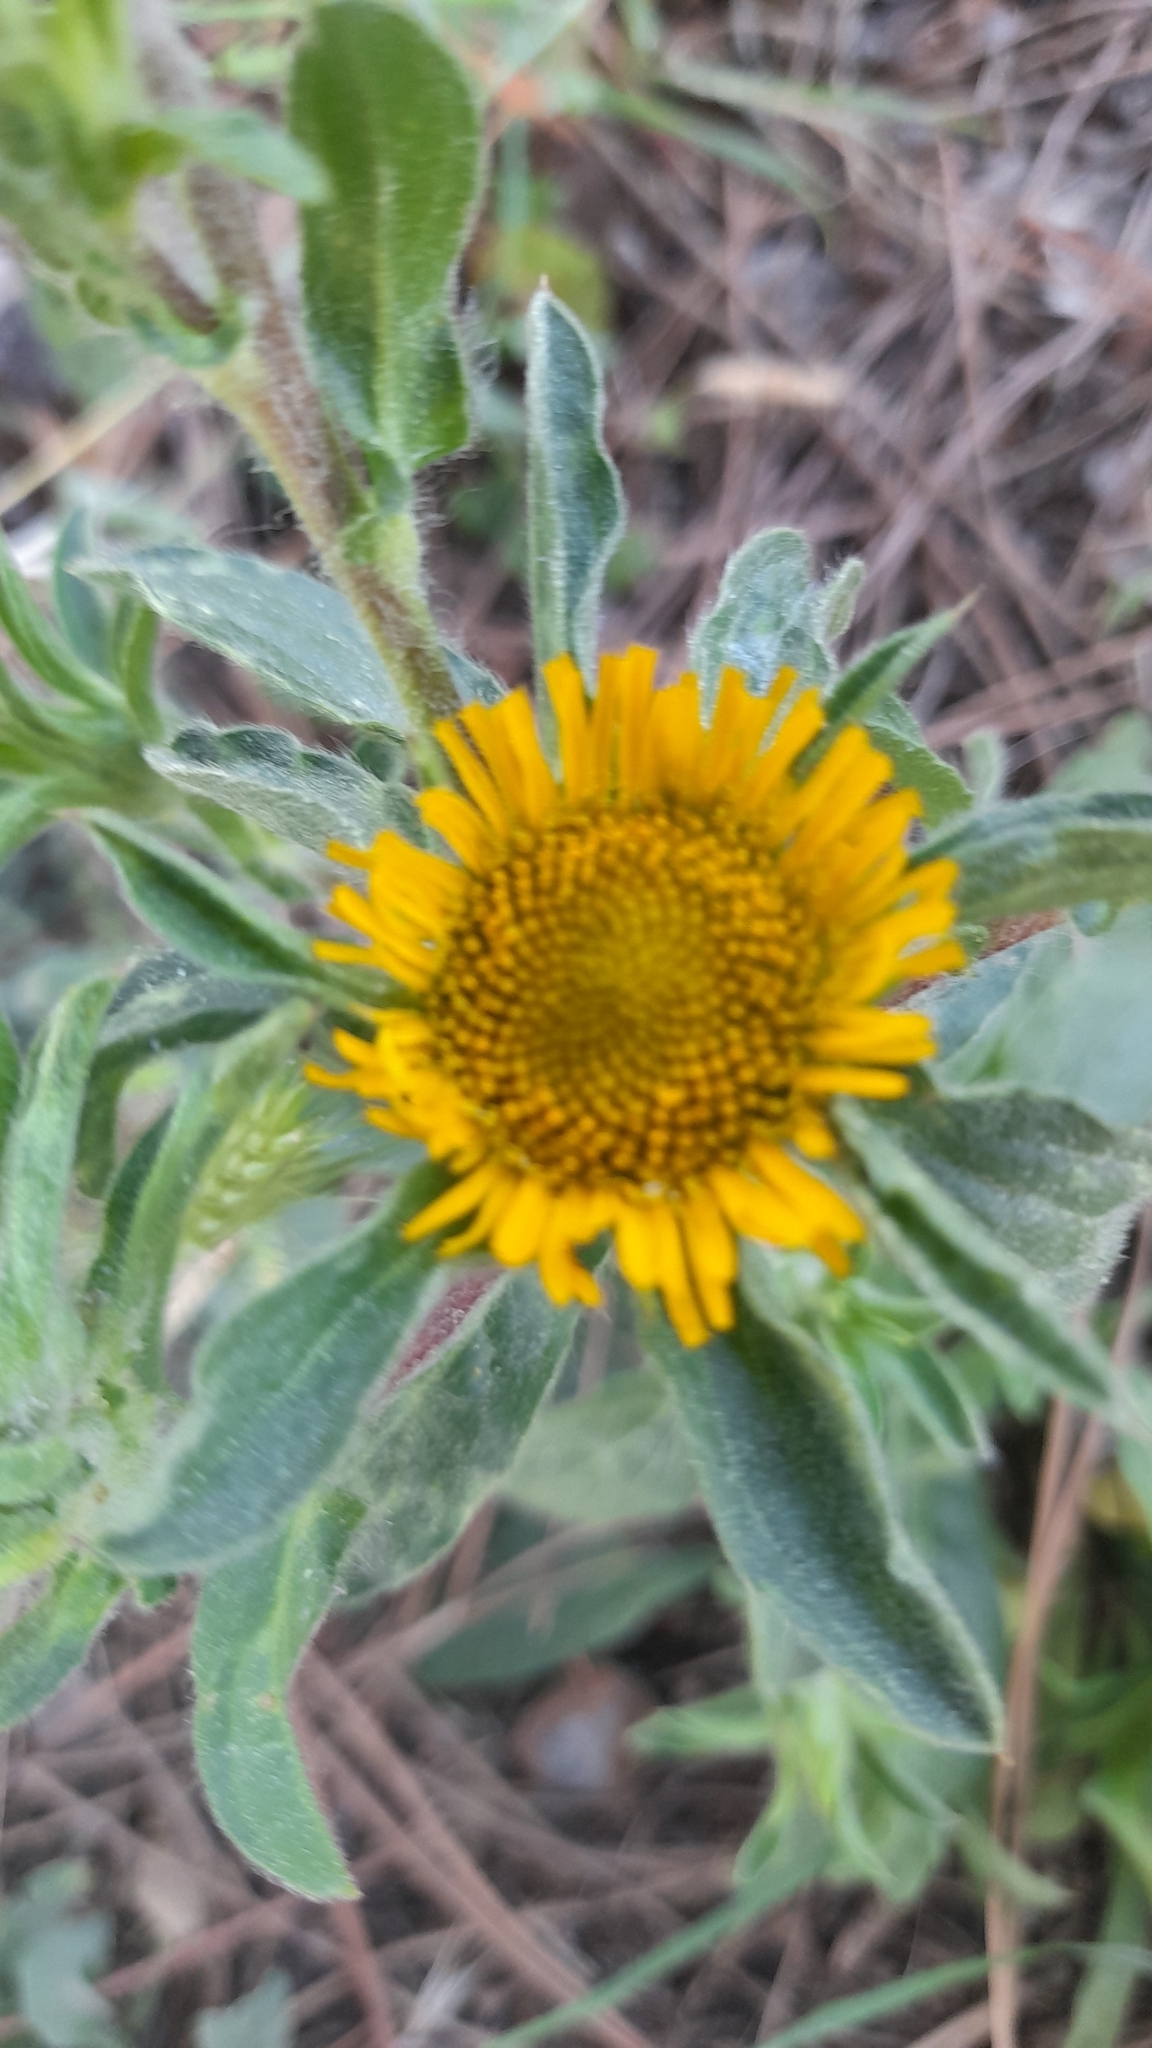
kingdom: Plantae
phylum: Tracheophyta
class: Magnoliopsida
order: Asterales
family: Asteraceae
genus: Pallenis
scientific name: Pallenis spinosa
